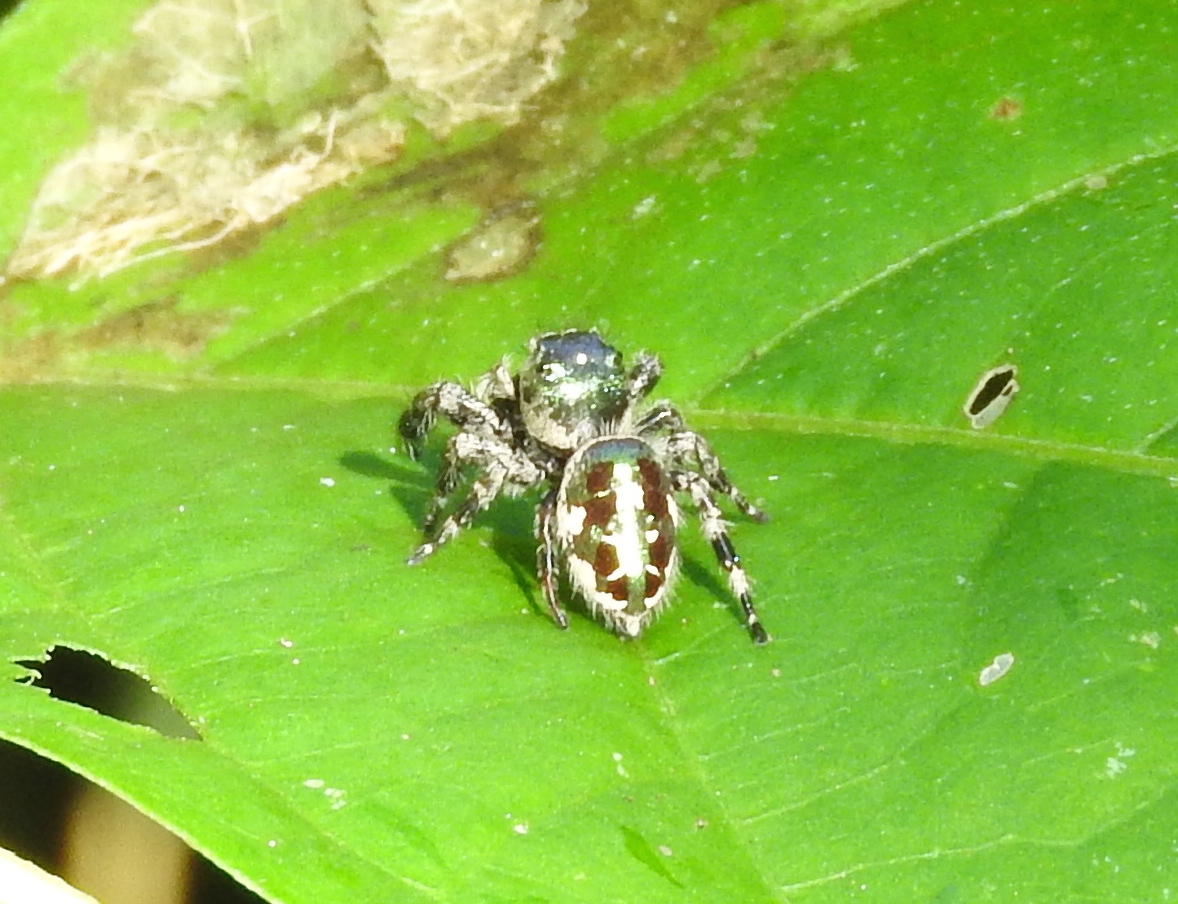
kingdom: Animalia
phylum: Arthropoda
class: Arachnida
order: Araneae
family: Salticidae
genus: Paraphidippus
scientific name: Paraphidippus
